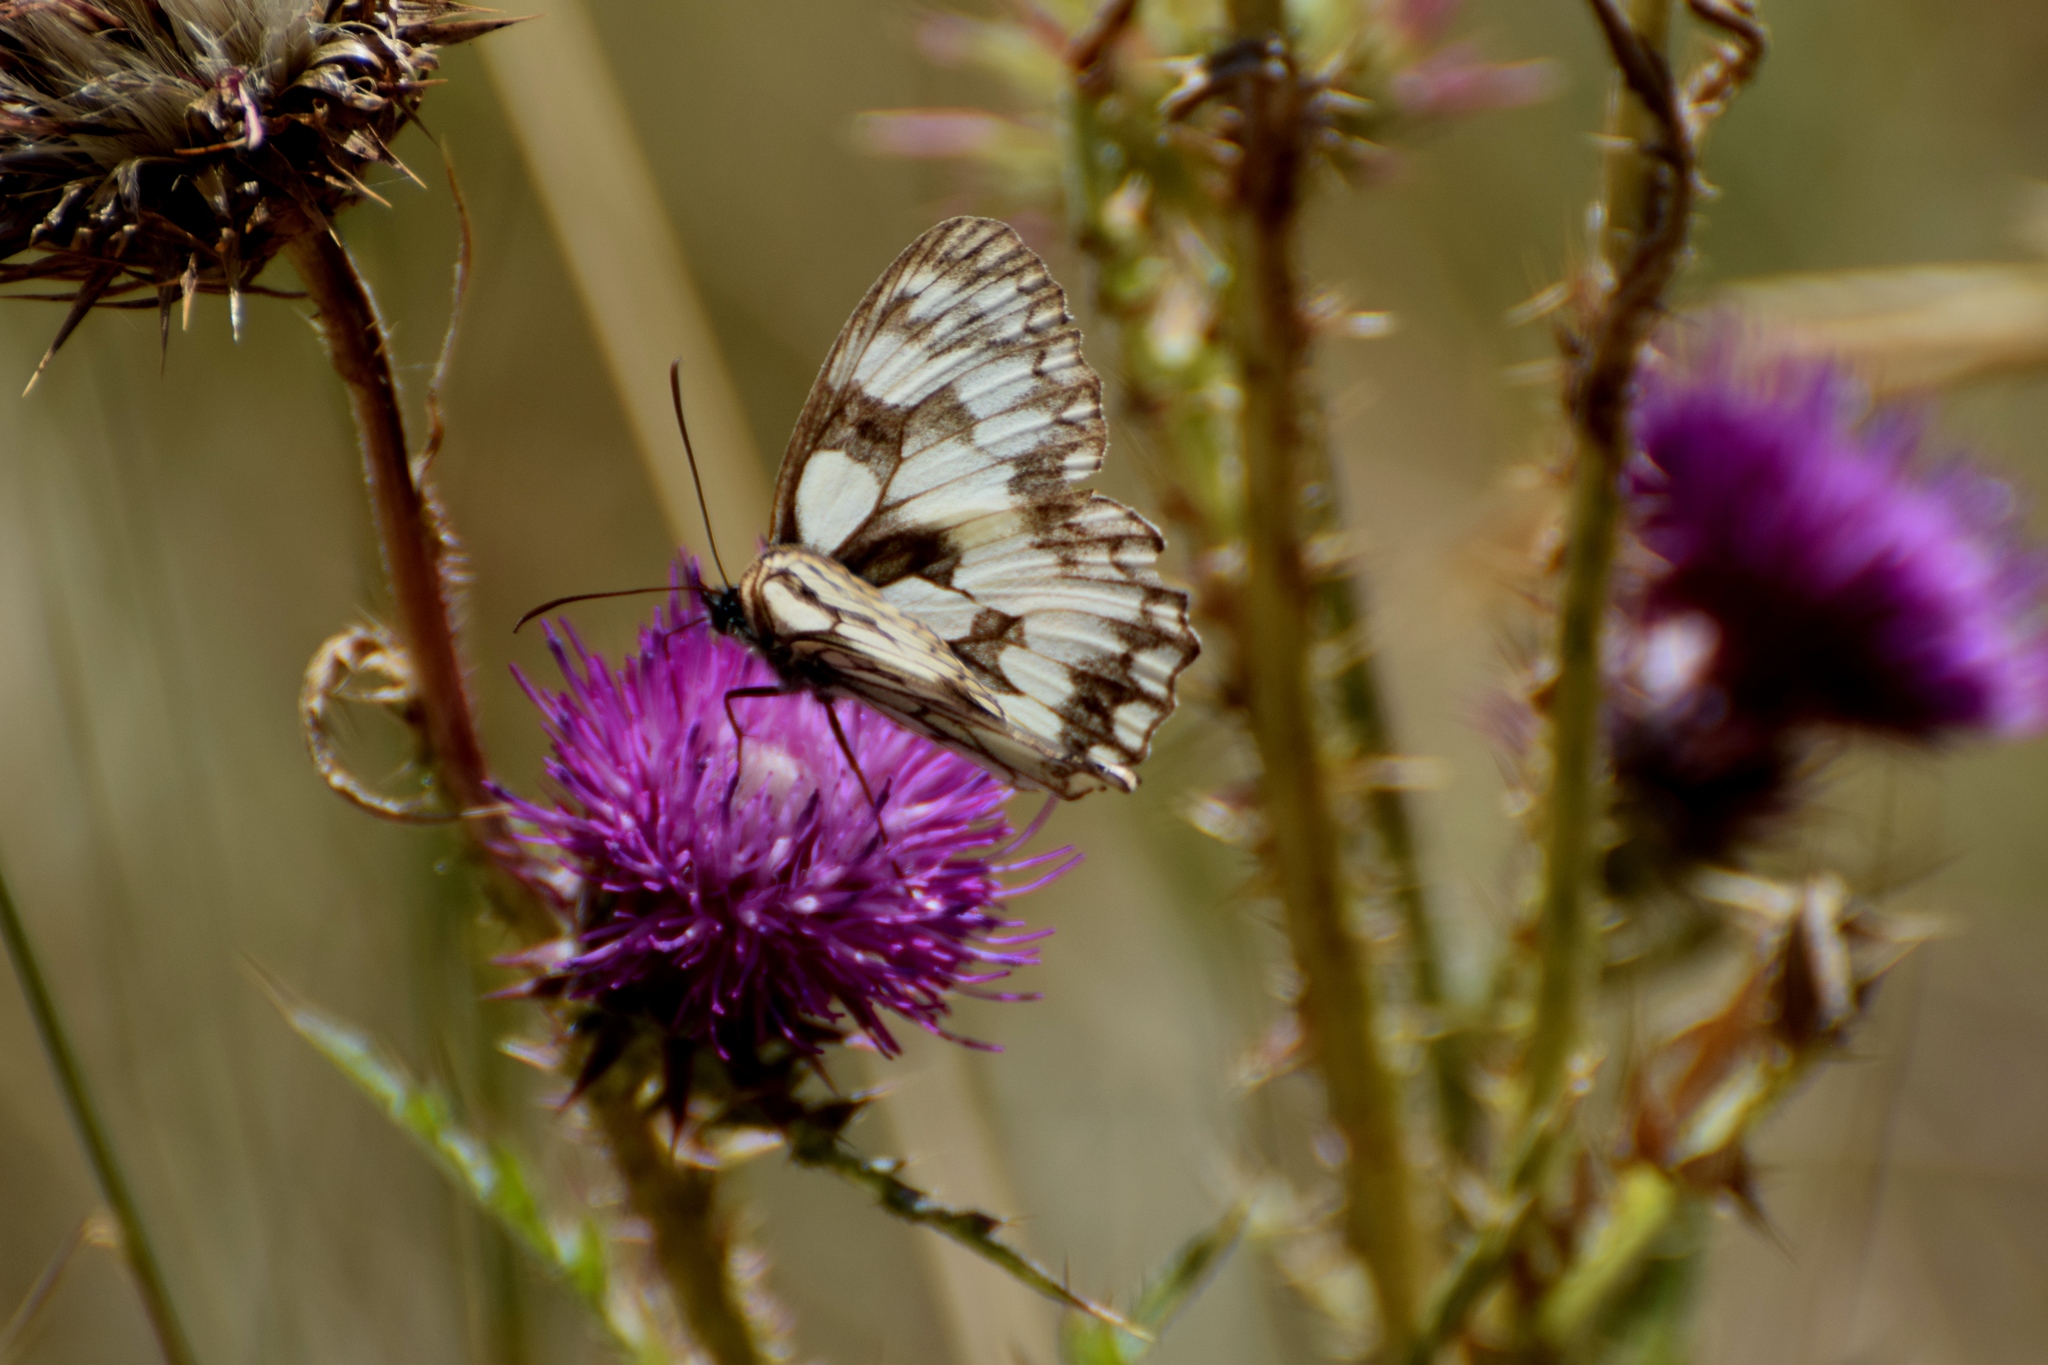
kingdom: Animalia
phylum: Arthropoda
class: Insecta
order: Lepidoptera
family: Nymphalidae
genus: Melanargia
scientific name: Melanargia galathea
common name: Marbled white
